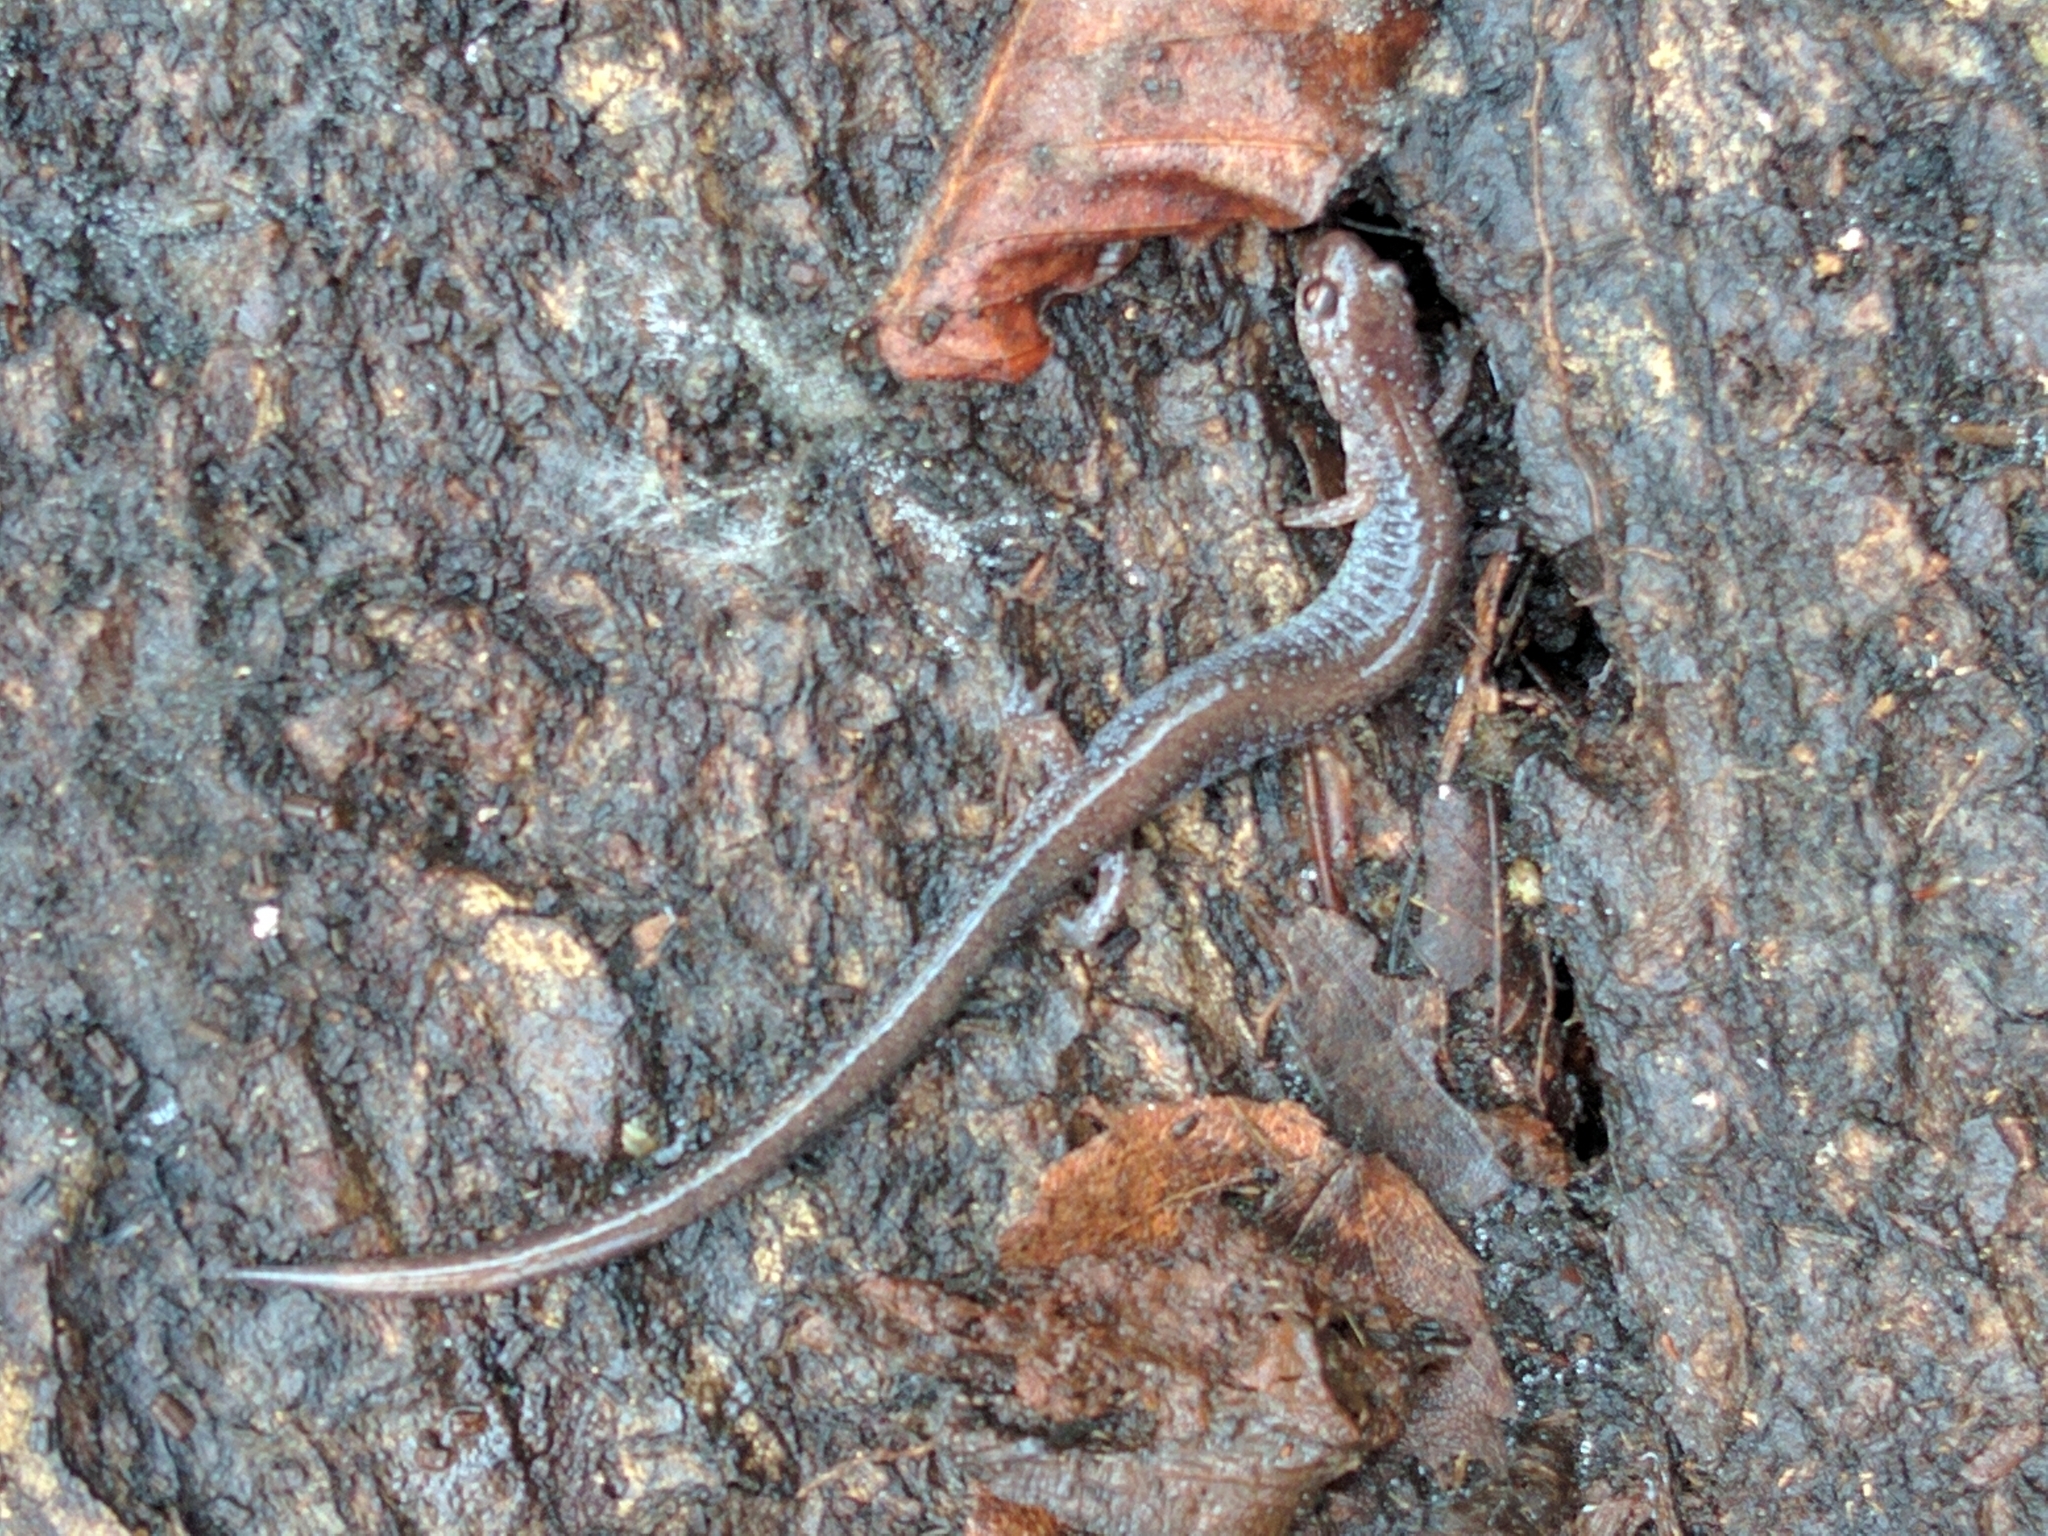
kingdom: Animalia
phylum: Chordata
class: Amphibia
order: Caudata
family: Plethodontidae
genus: Plethodon
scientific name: Plethodon cinereus
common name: Redback salamander
